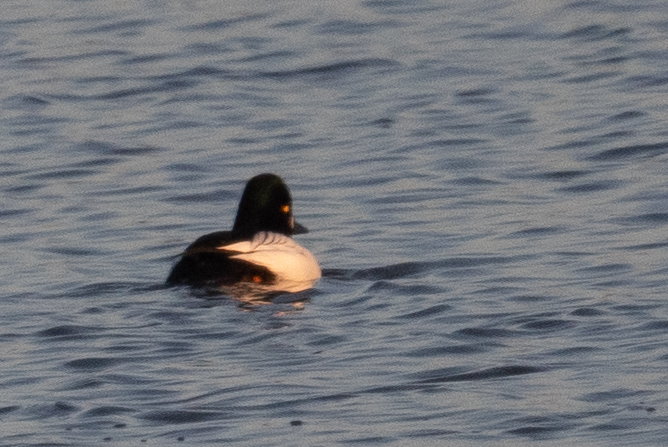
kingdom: Animalia
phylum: Chordata
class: Aves
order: Anseriformes
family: Anatidae
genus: Bucephala
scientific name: Bucephala clangula
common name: Common goldeneye
